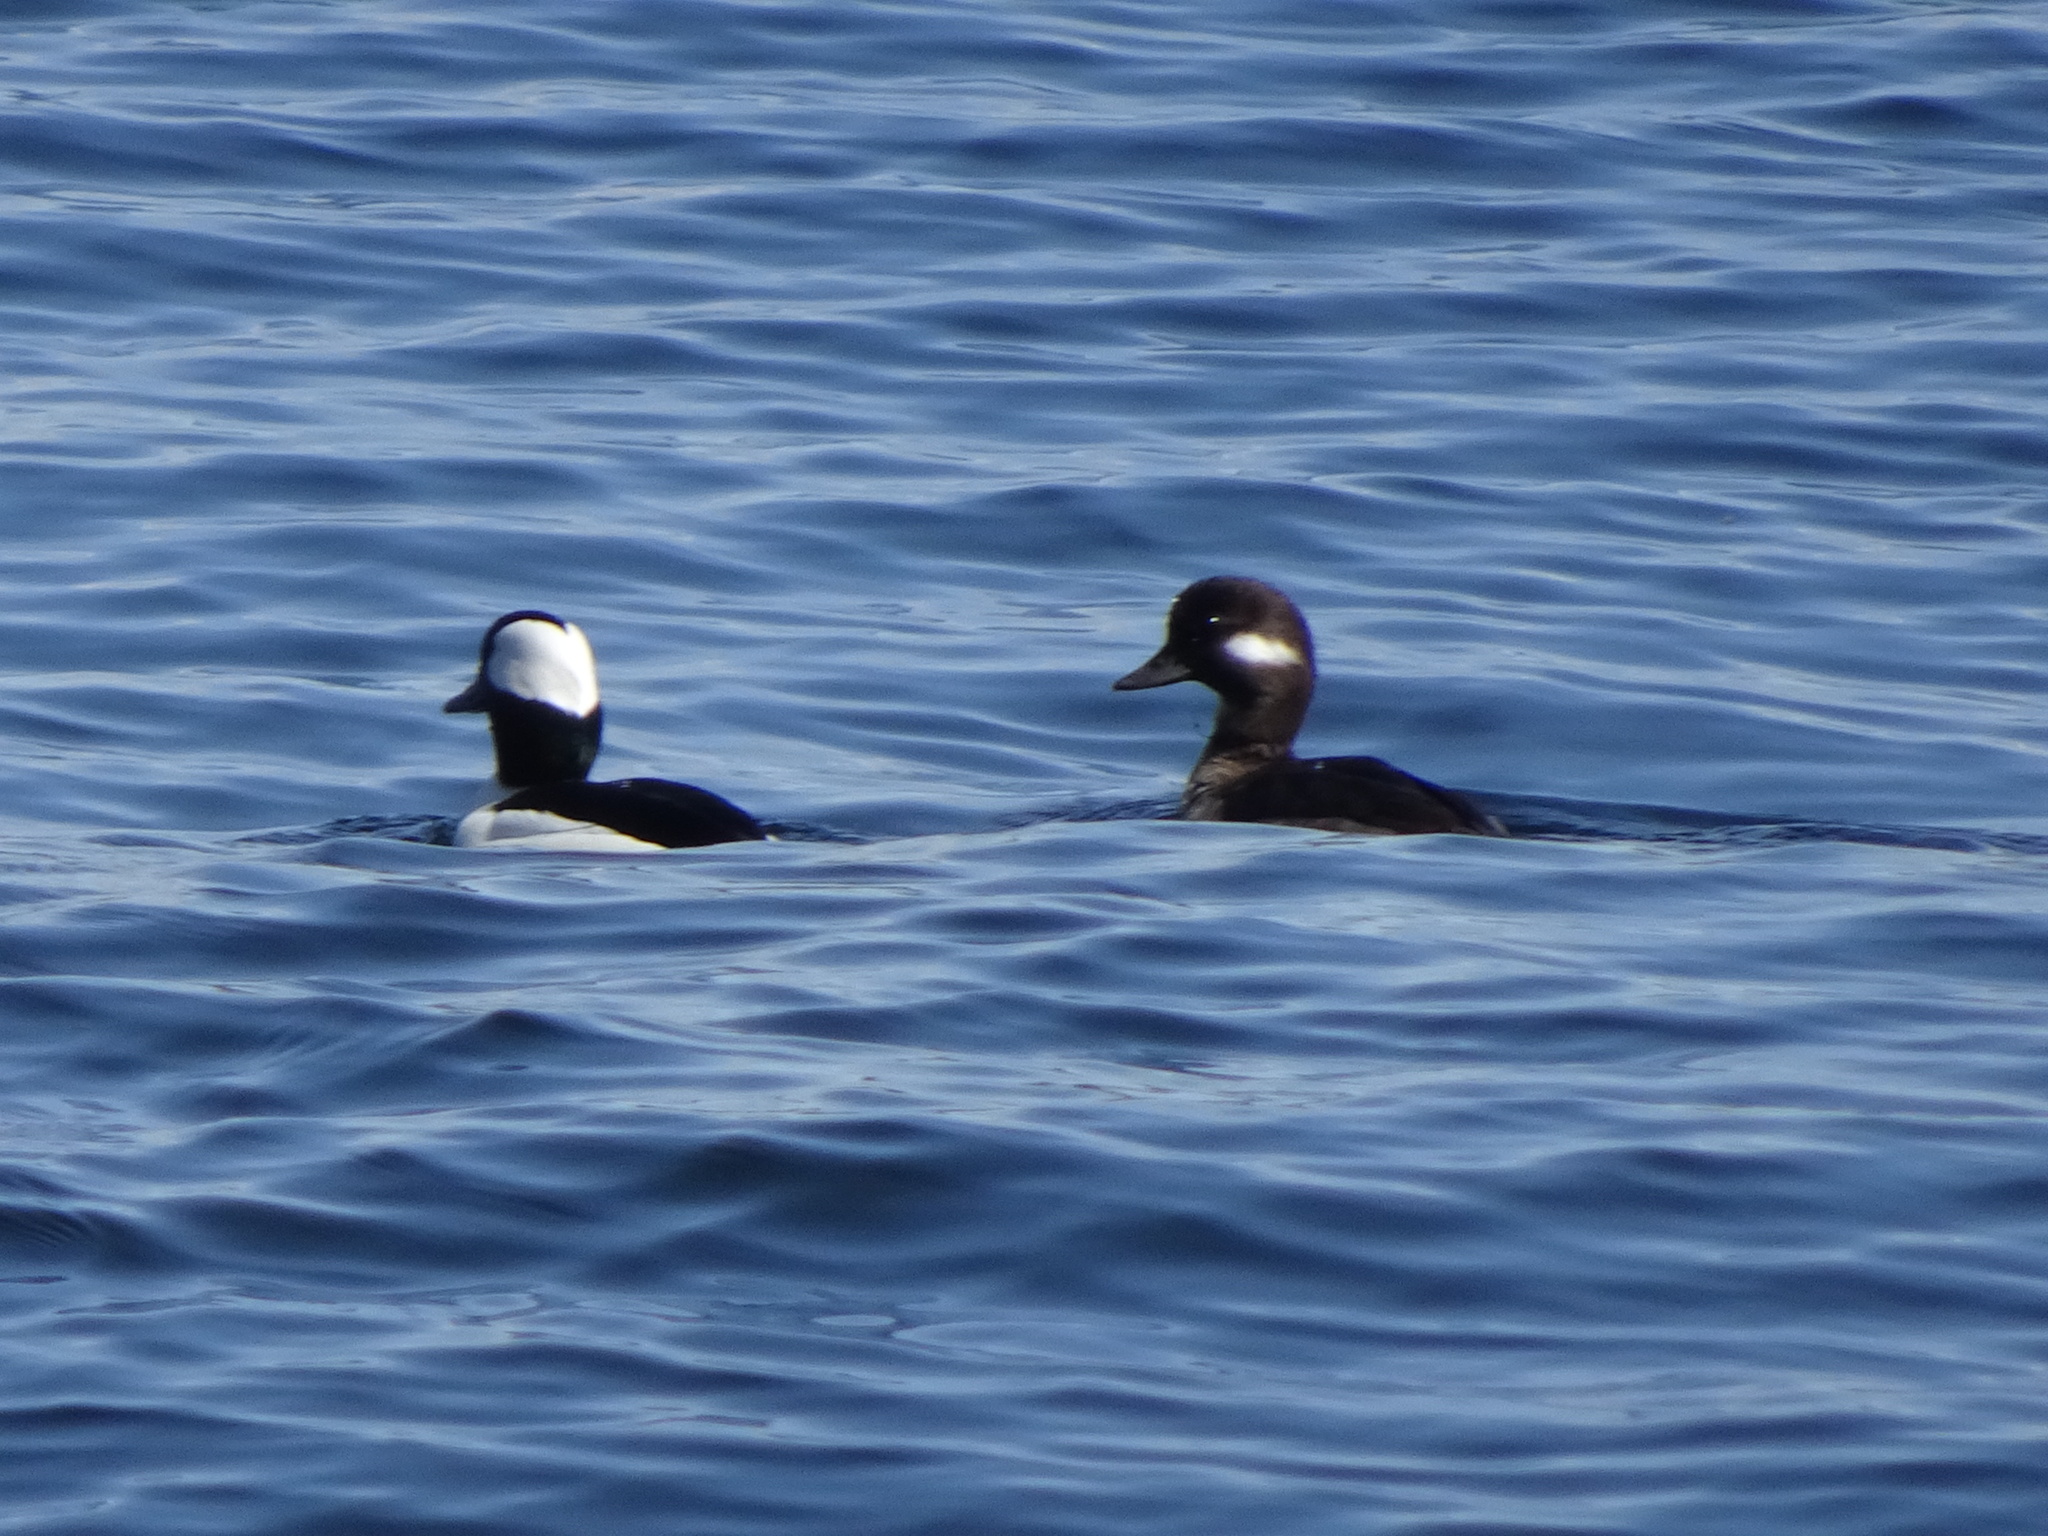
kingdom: Animalia
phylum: Chordata
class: Aves
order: Anseriformes
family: Anatidae
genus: Bucephala
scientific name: Bucephala albeola
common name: Bufflehead
